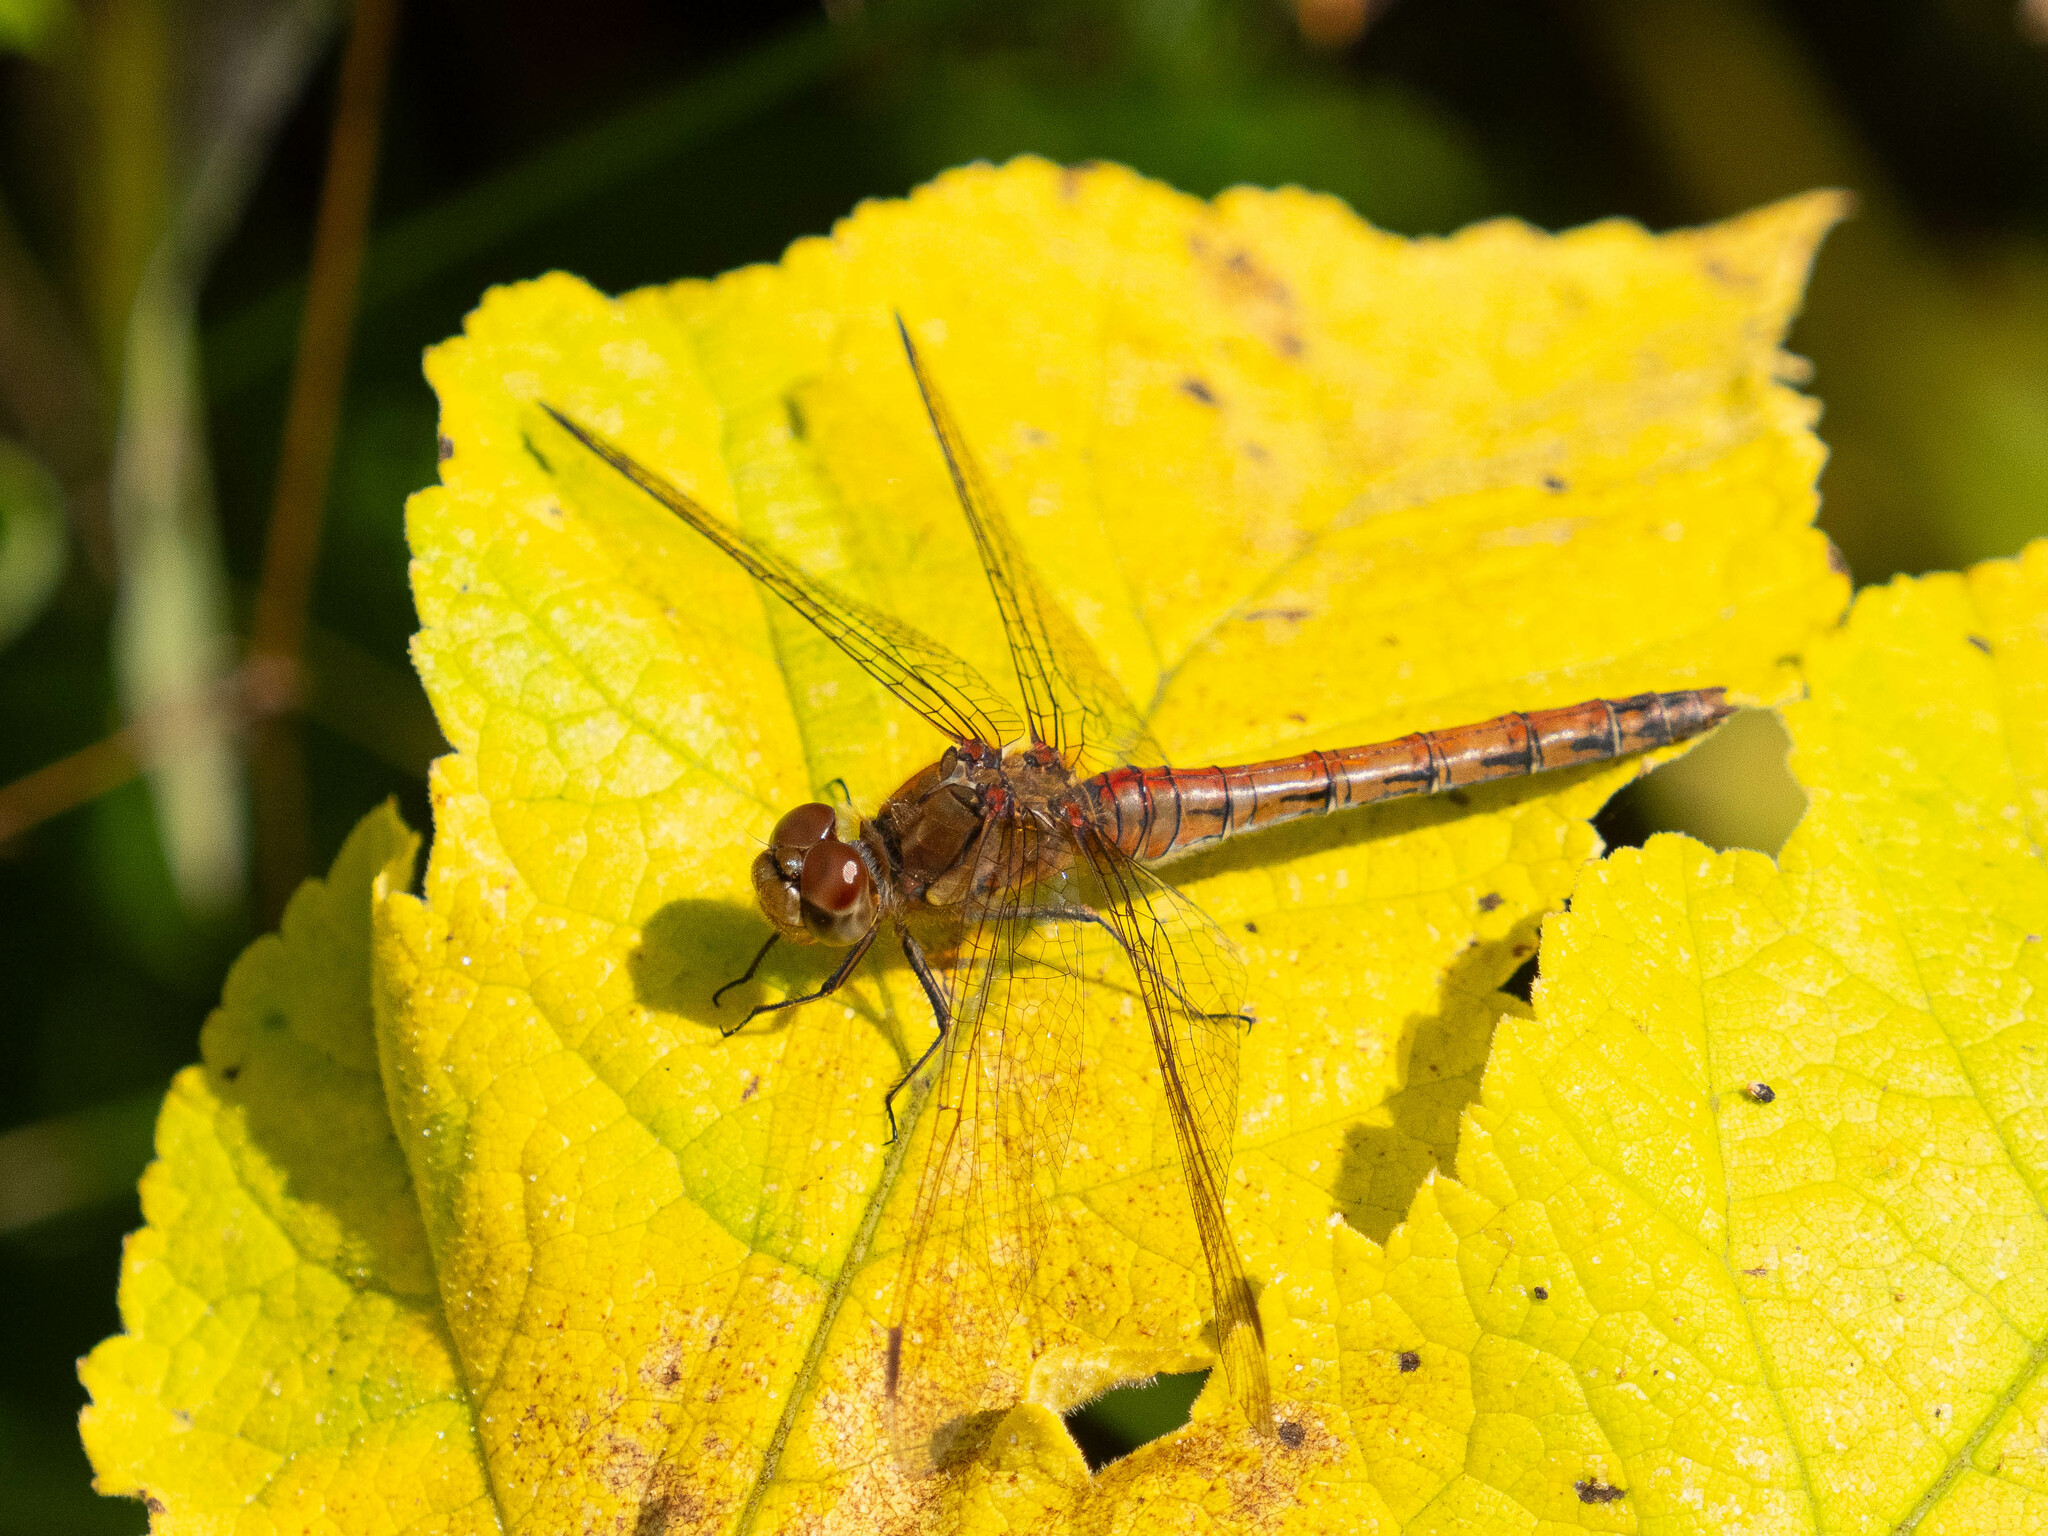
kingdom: Animalia
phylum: Arthropoda
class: Insecta
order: Odonata
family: Libellulidae
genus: Sympetrum
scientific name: Sympetrum striolatum
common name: Common darter
